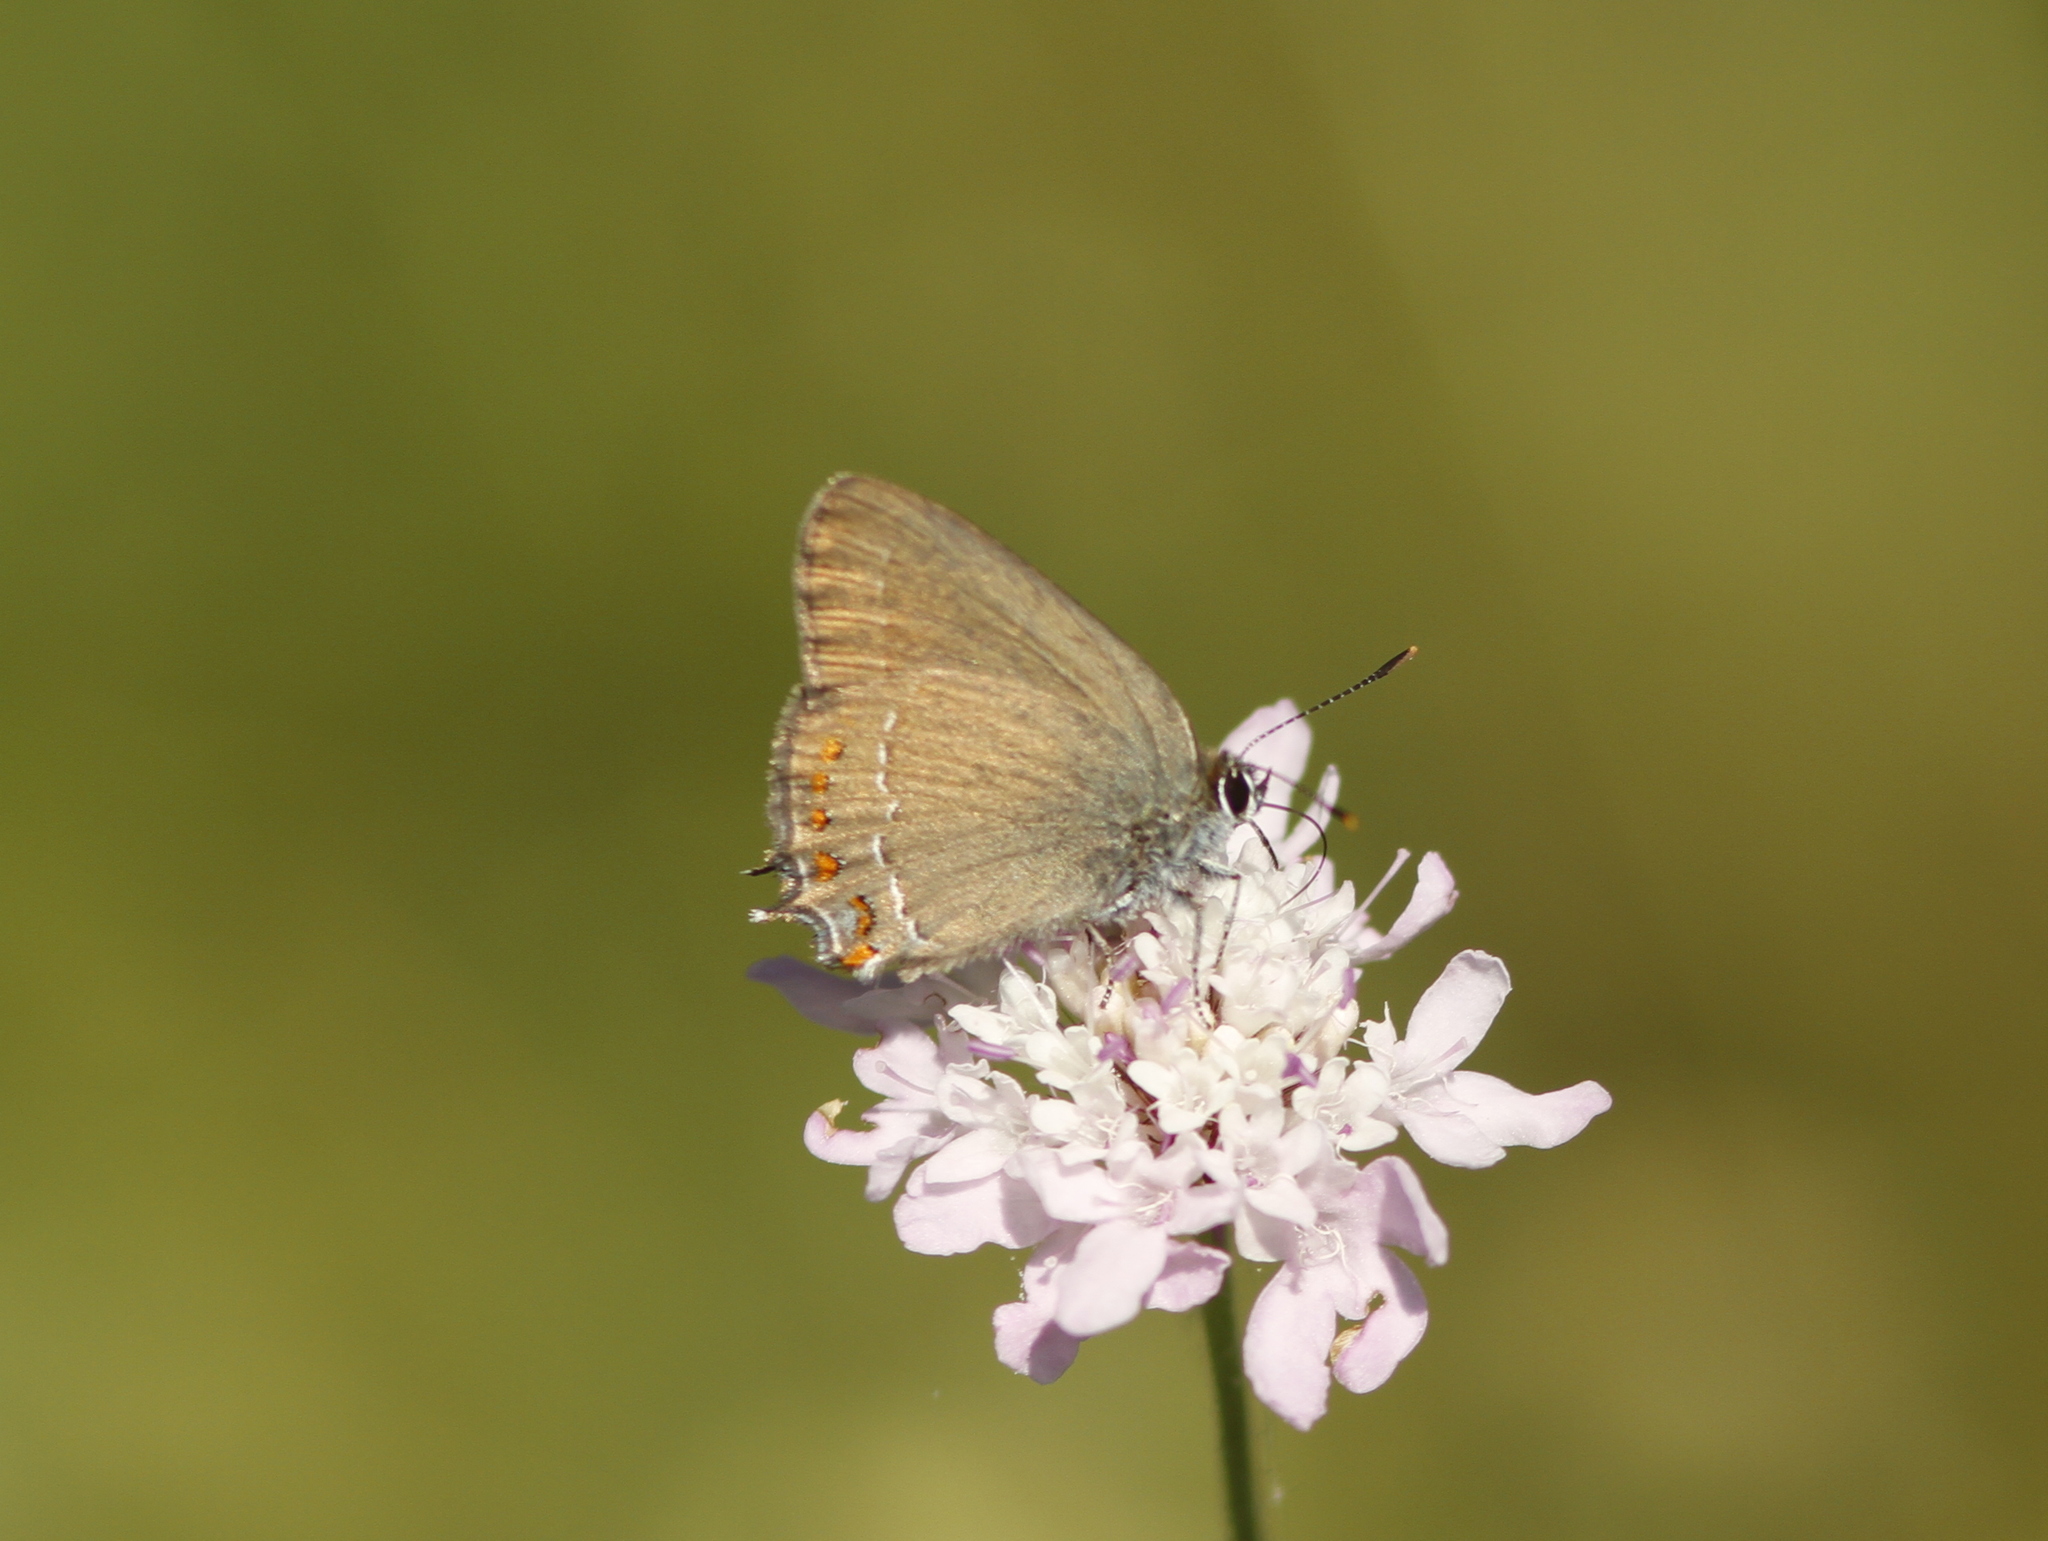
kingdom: Animalia
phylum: Arthropoda
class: Insecta
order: Lepidoptera
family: Lycaenidae
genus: Fixsenia
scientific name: Fixsenia esculi
